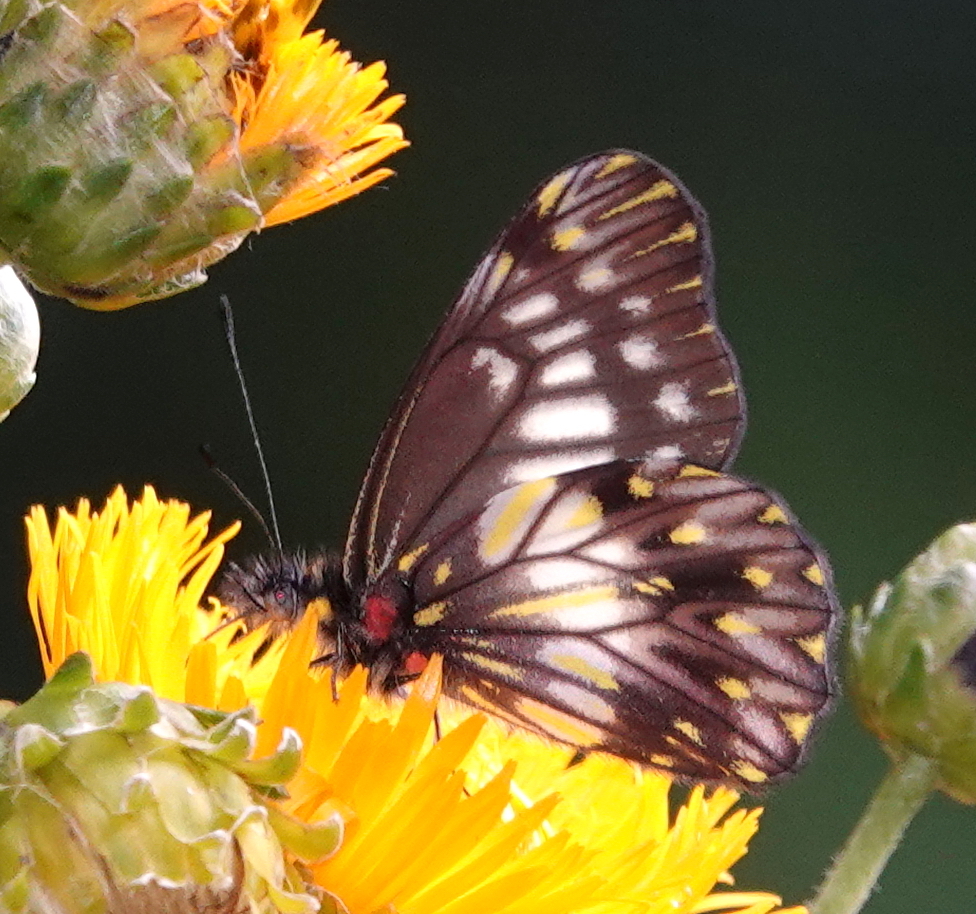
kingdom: Animalia
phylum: Arthropoda
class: Insecta
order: Lepidoptera
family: Pieridae
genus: Archonias
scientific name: Archonias flisa
